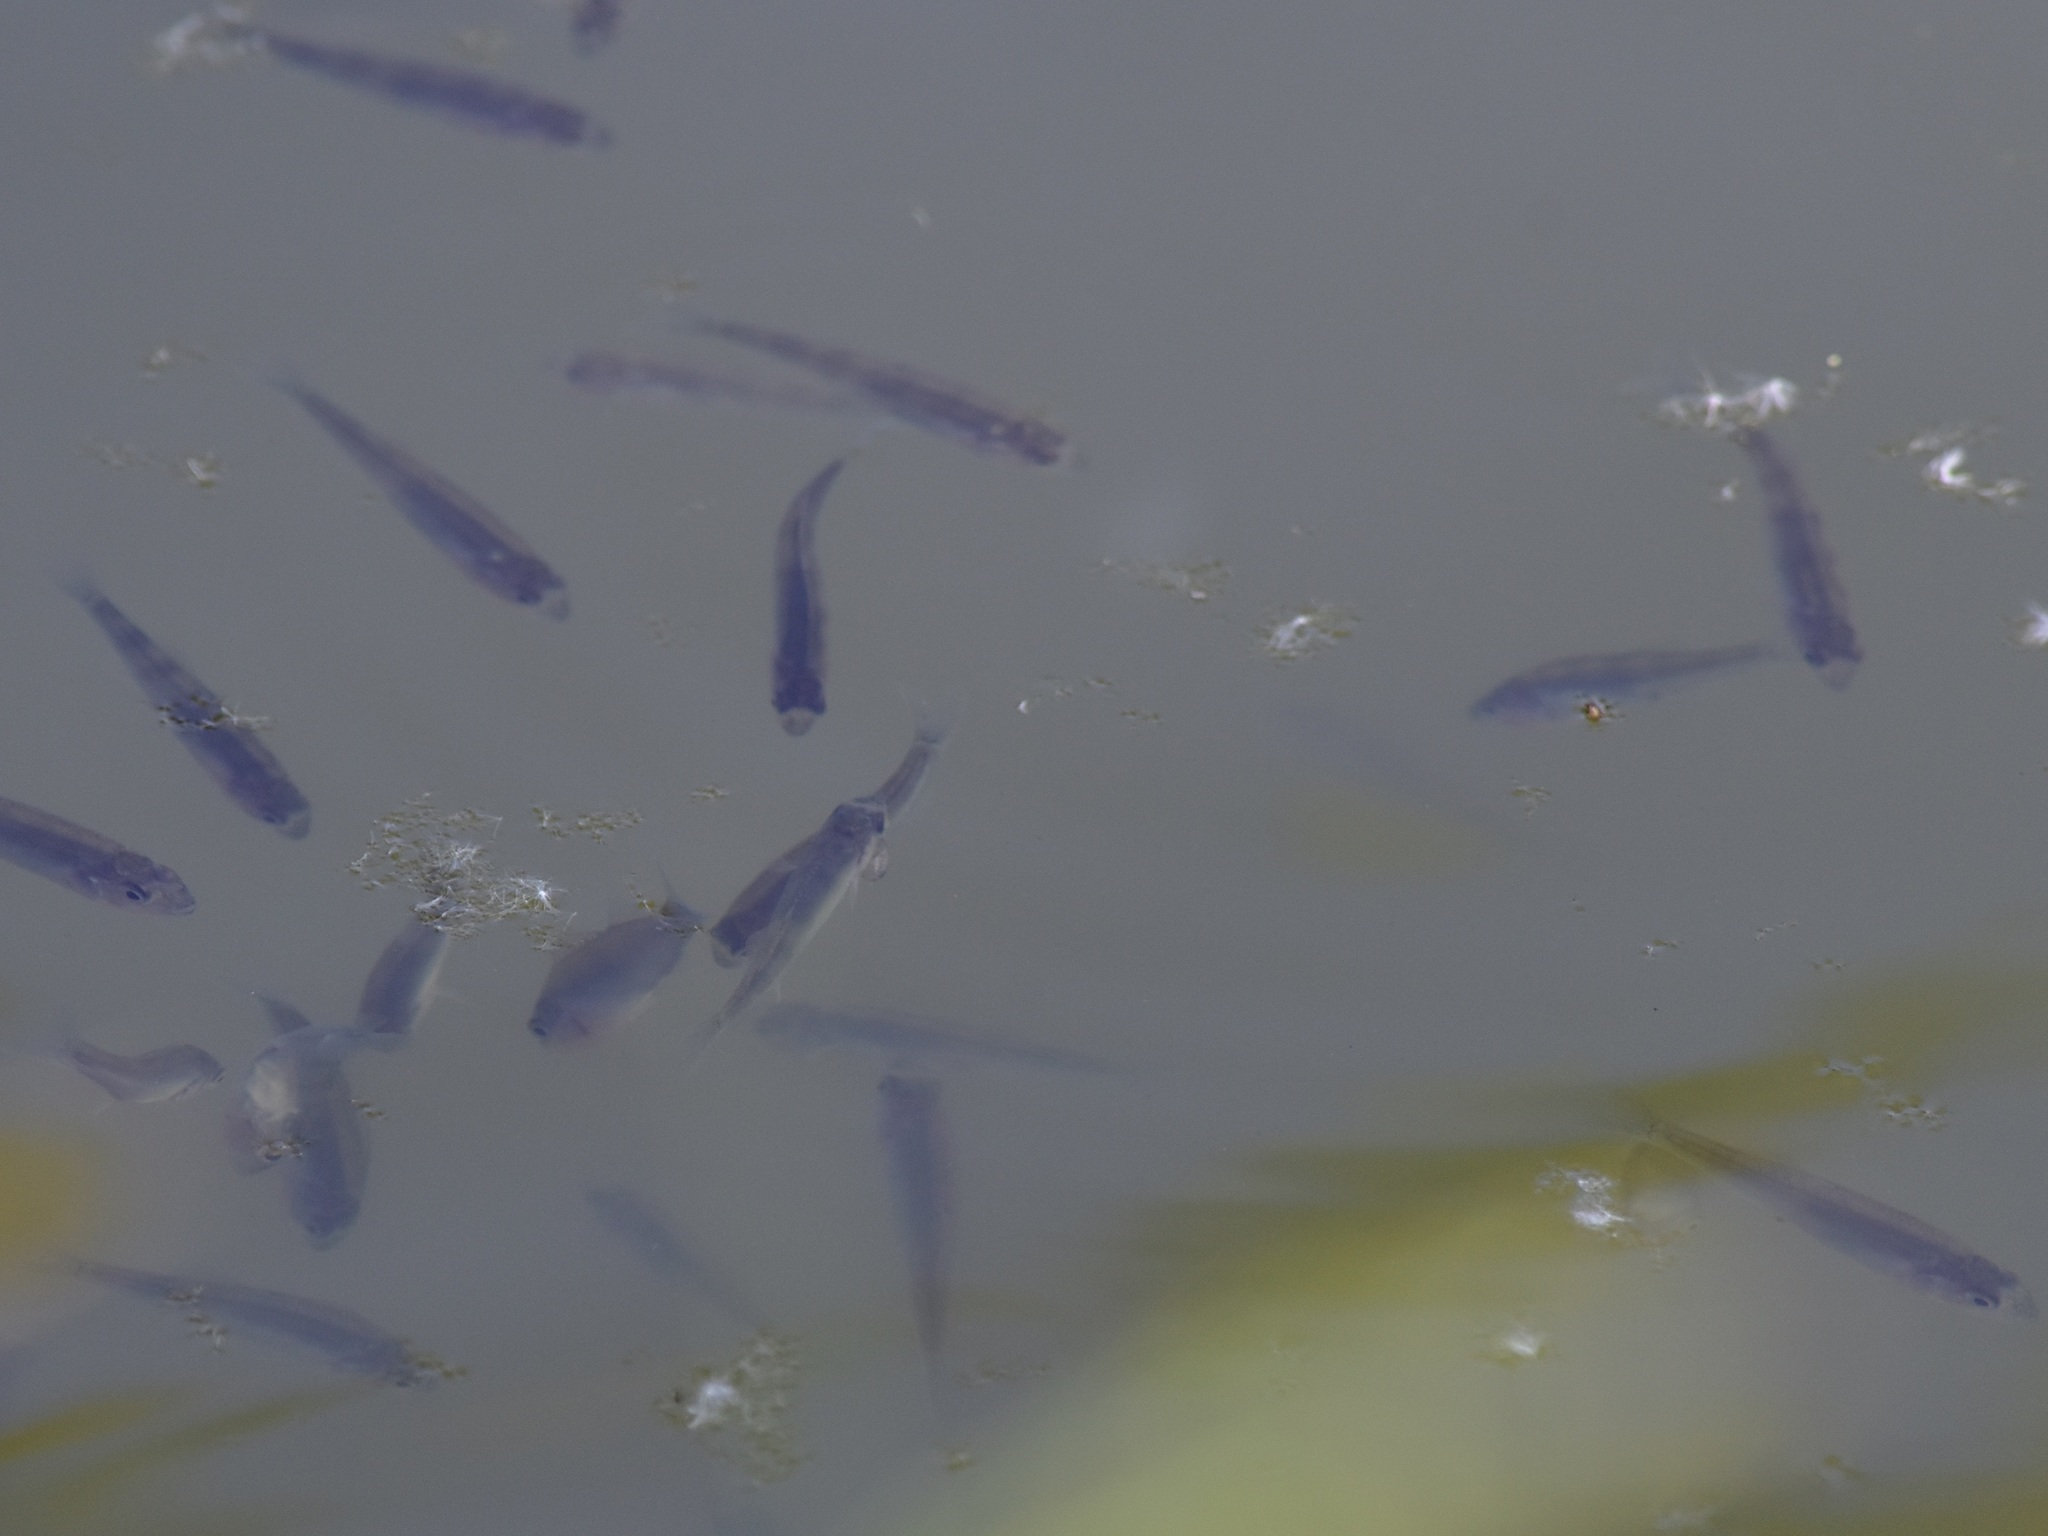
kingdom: Animalia
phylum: Chordata
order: Perciformes
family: Percidae
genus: Perca
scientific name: Perca fluviatilis
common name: Perch
